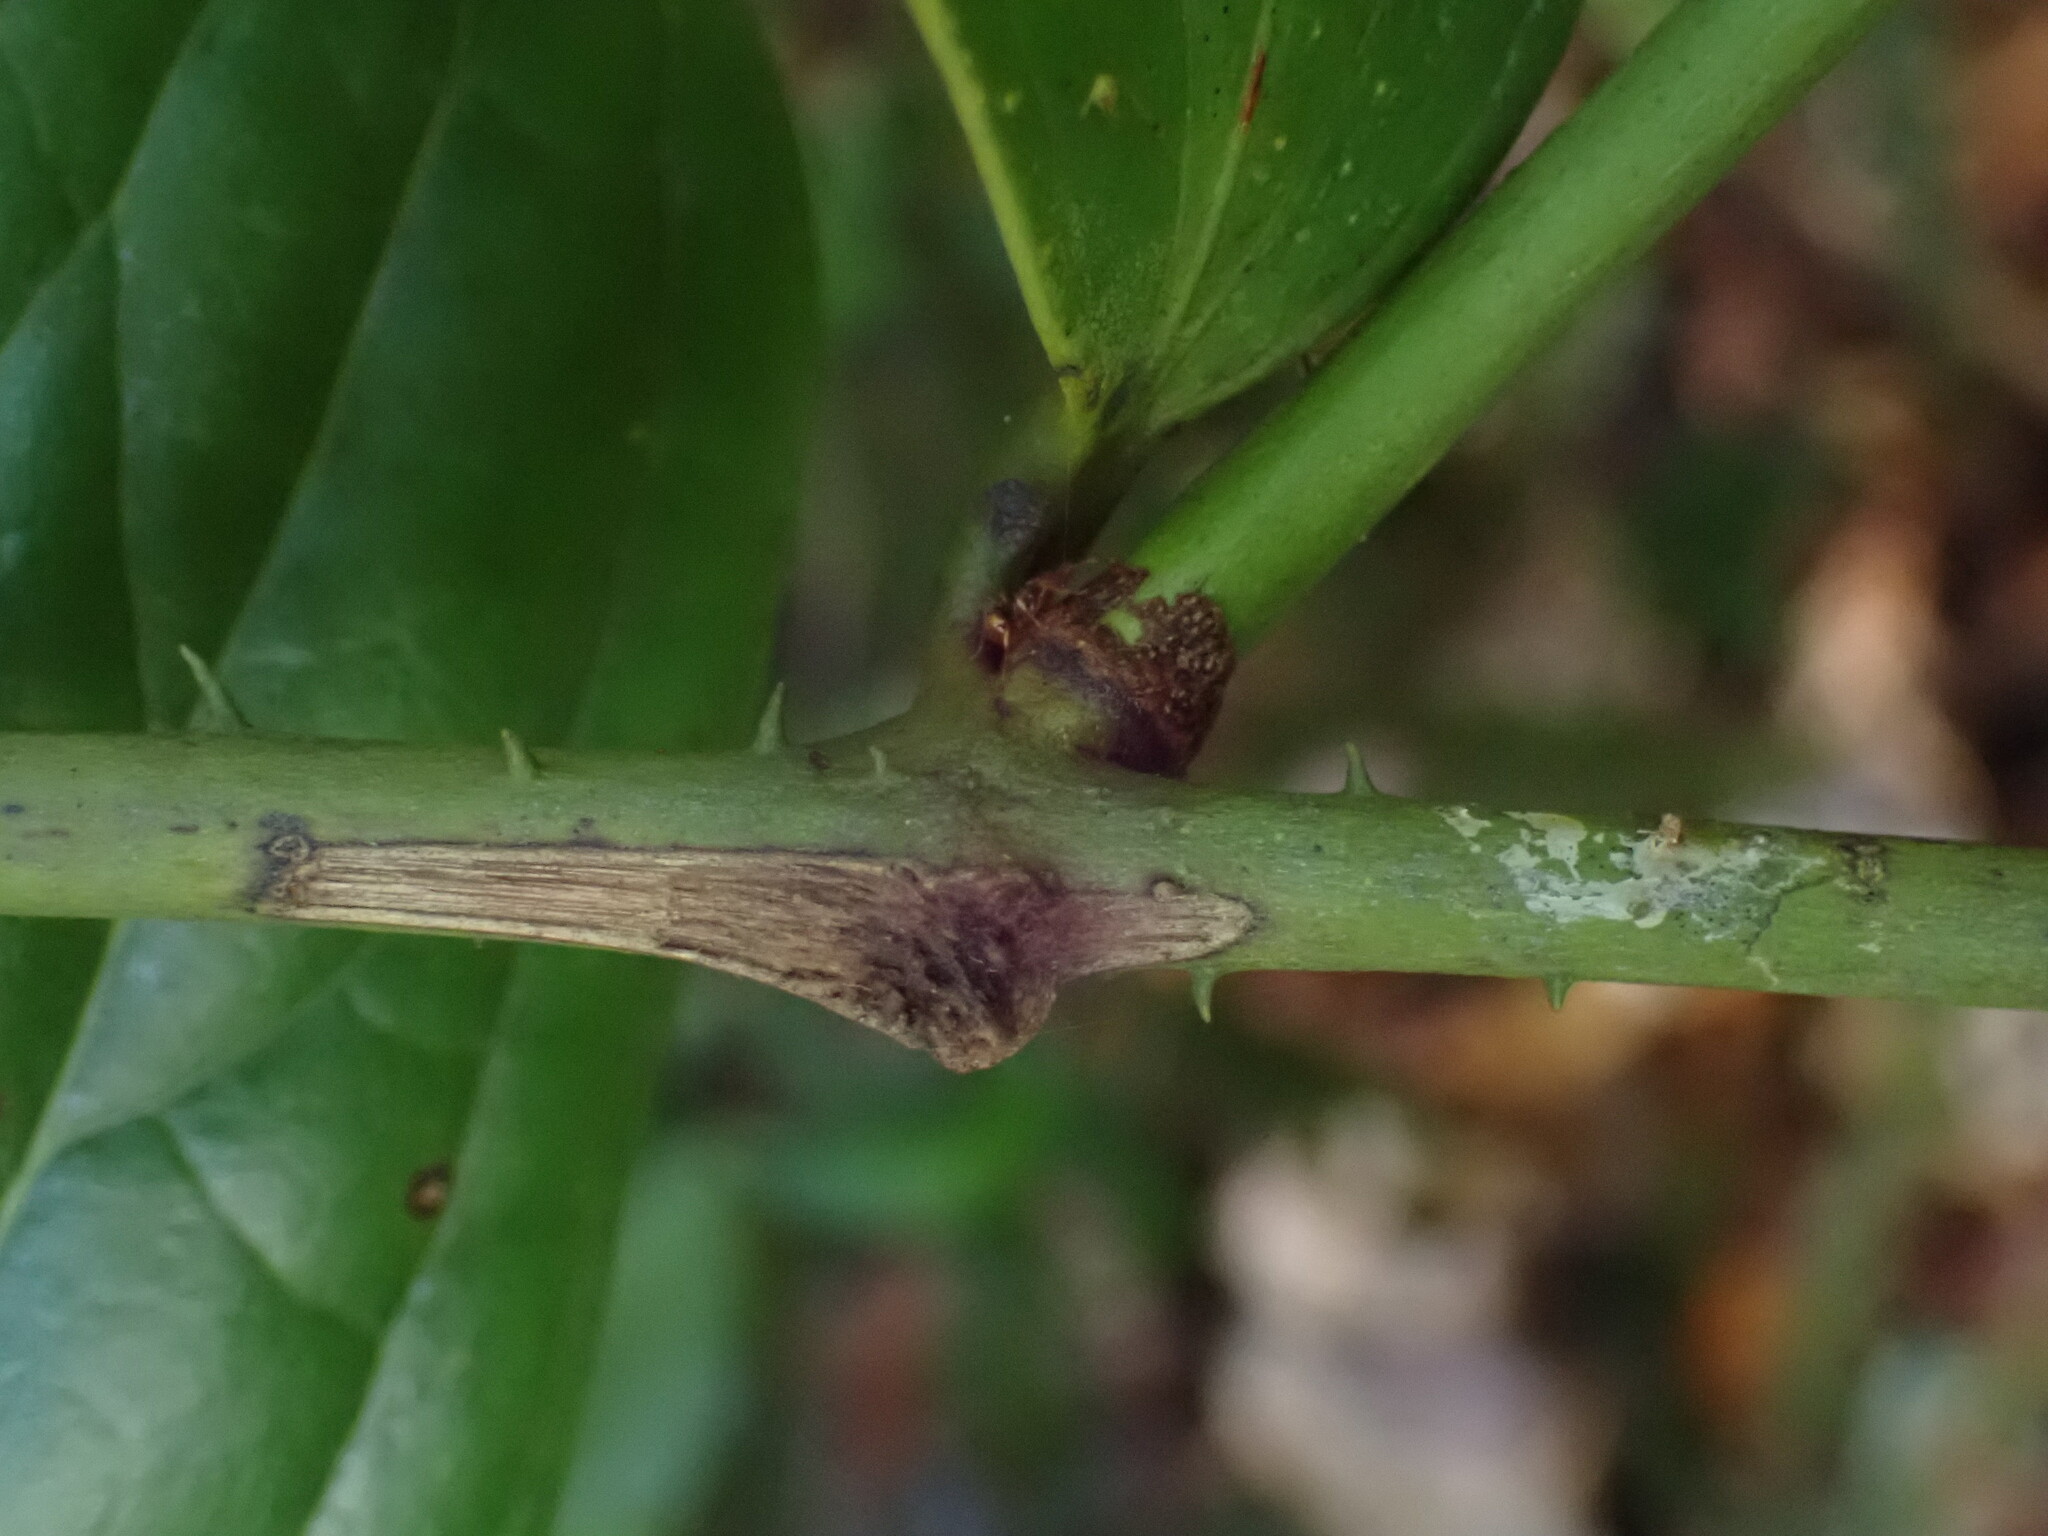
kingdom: Plantae
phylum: Tracheophyta
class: Liliopsida
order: Liliales
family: Ripogonaceae
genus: Ripogonum
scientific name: Ripogonum discolor
